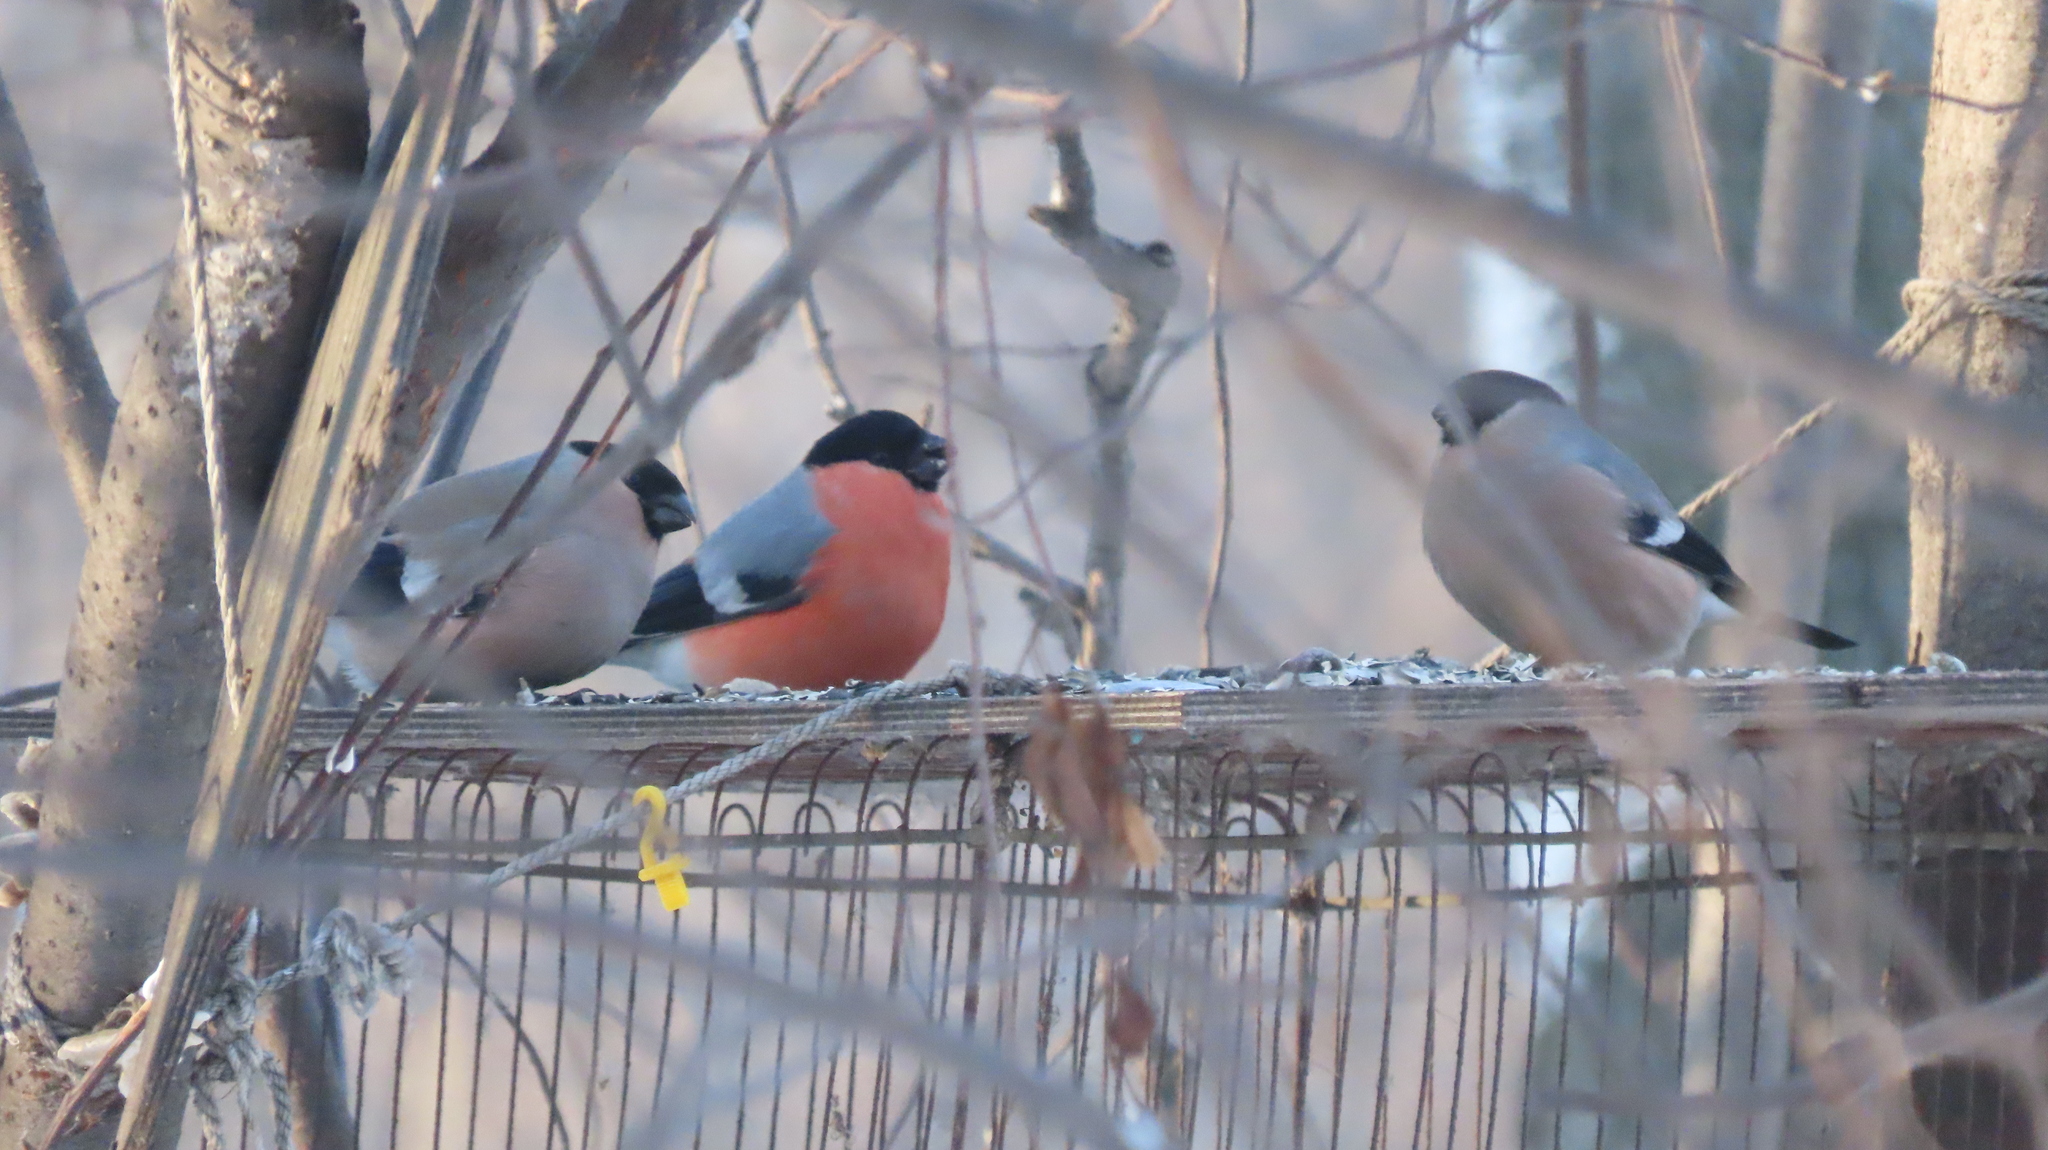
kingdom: Animalia
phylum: Chordata
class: Aves
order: Passeriformes
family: Fringillidae
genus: Pyrrhula
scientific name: Pyrrhula pyrrhula
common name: Eurasian bullfinch
